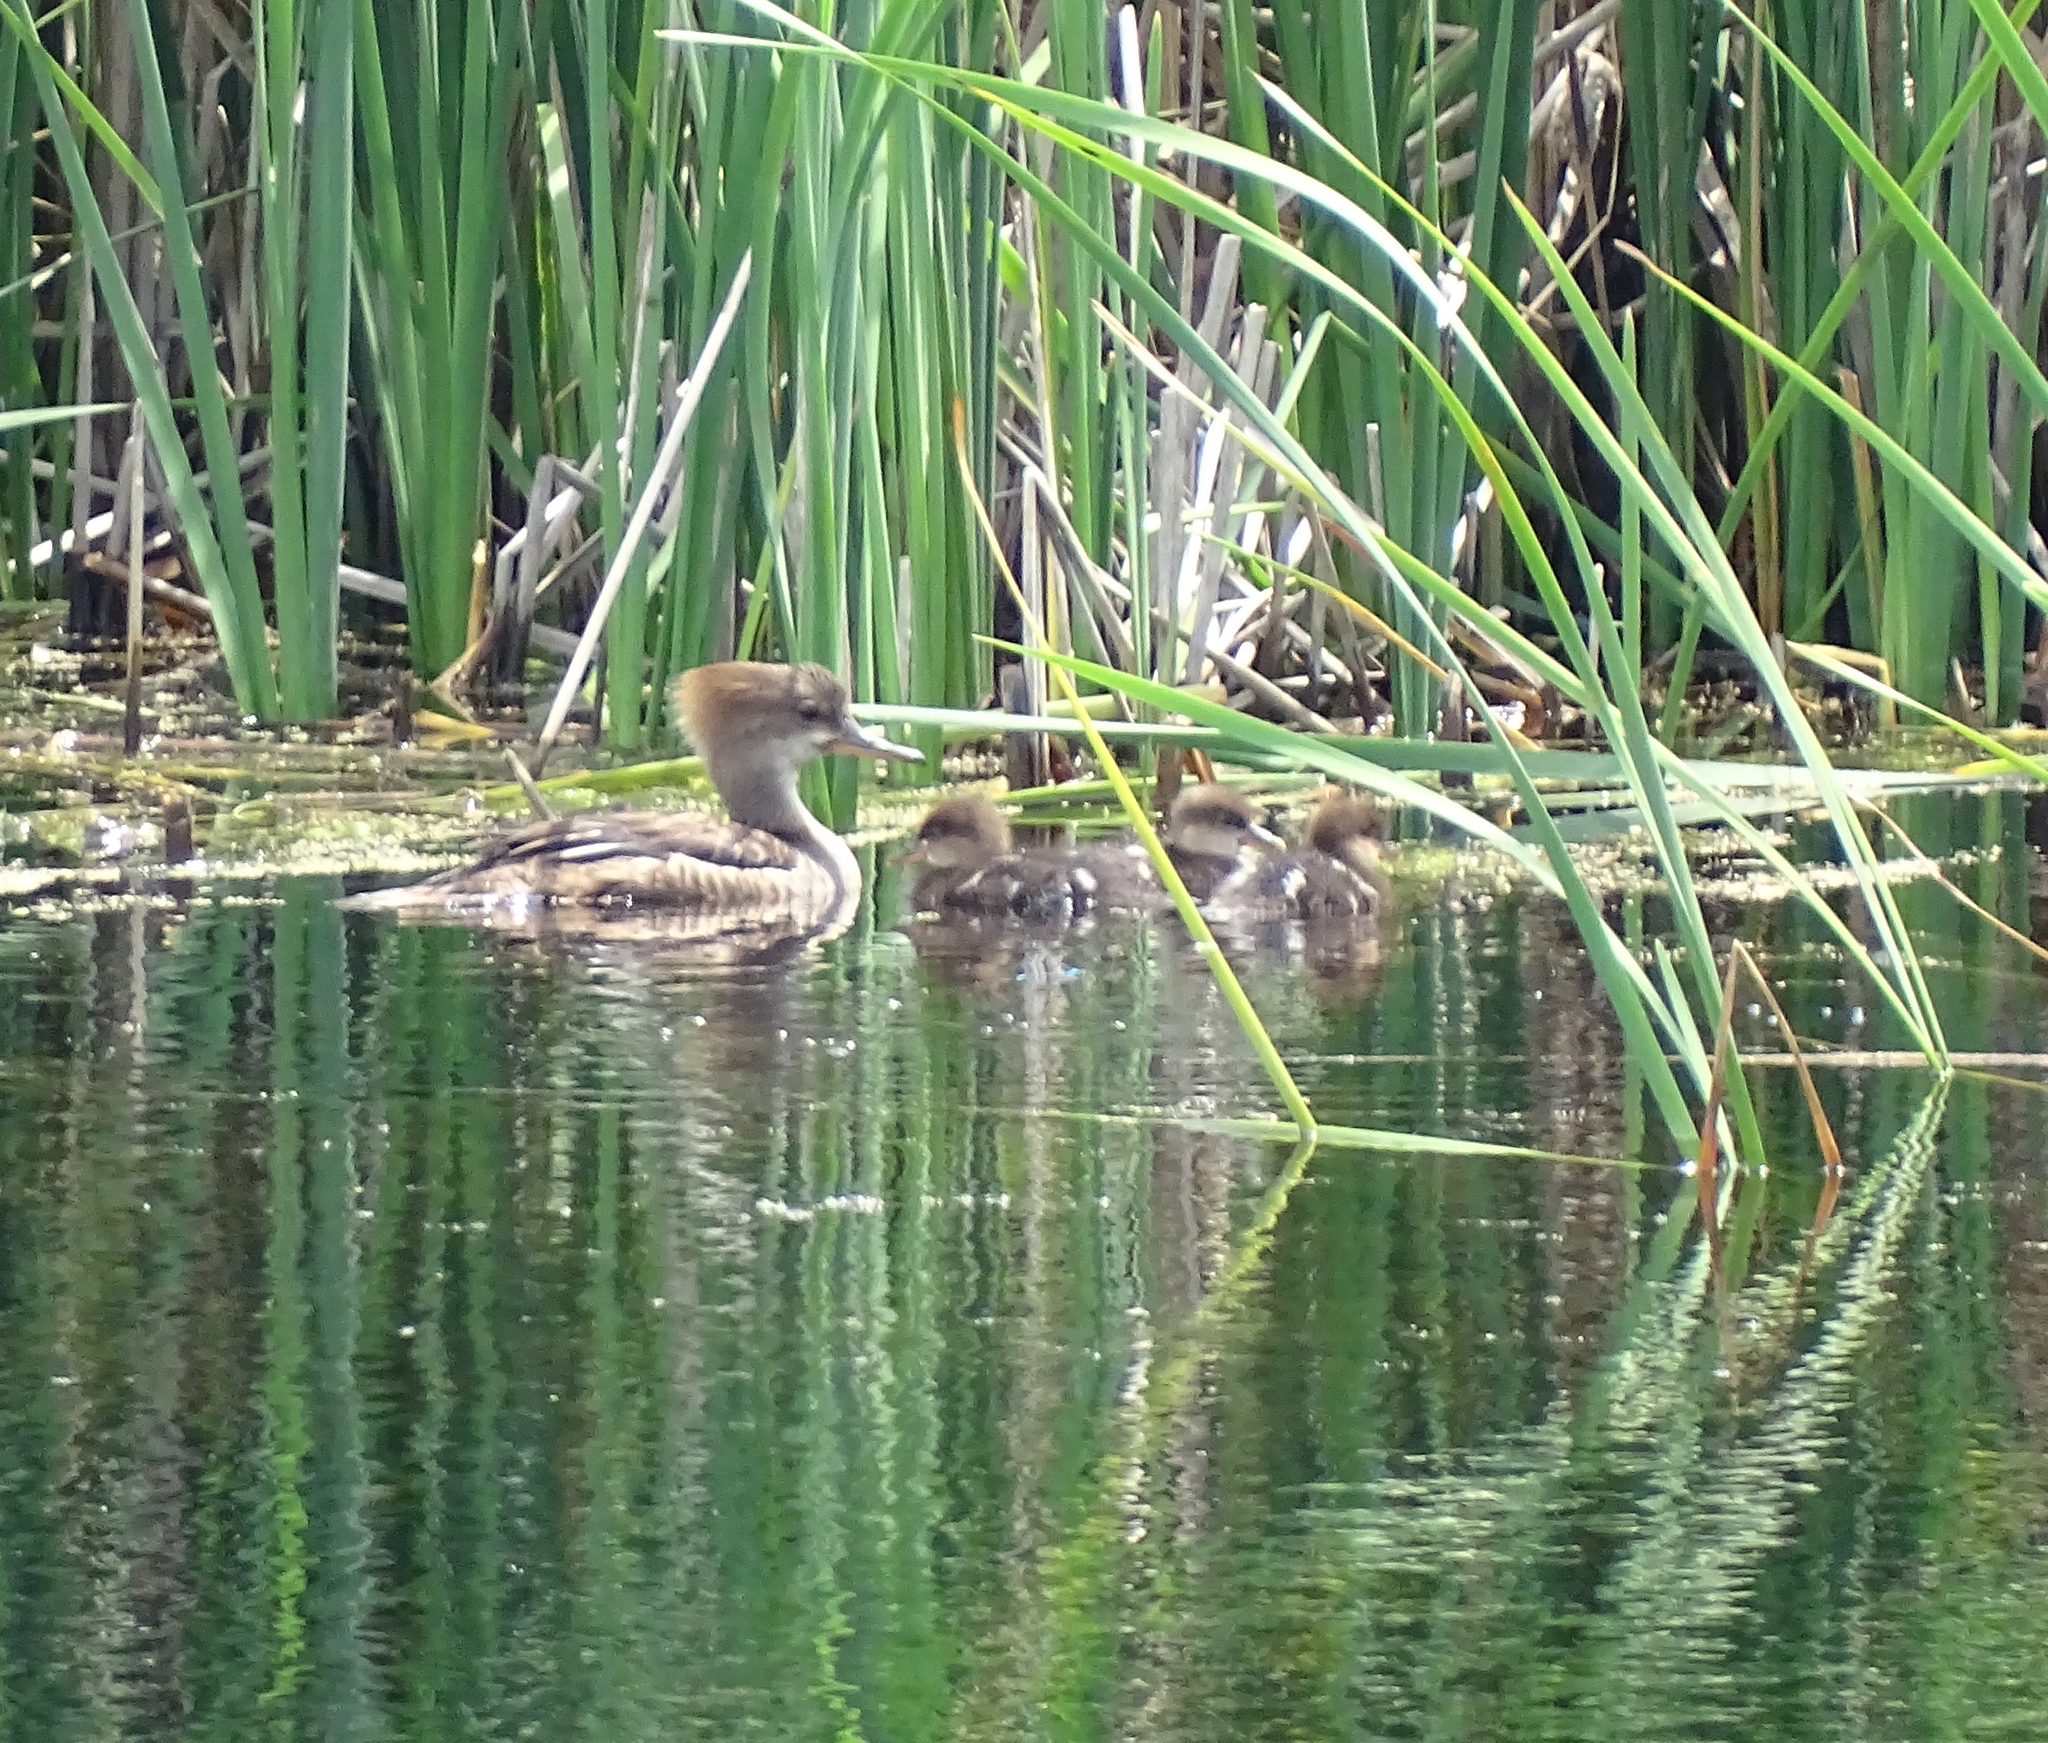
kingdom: Animalia
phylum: Chordata
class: Aves
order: Anseriformes
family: Anatidae
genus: Lophodytes
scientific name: Lophodytes cucullatus
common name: Hooded merganser
